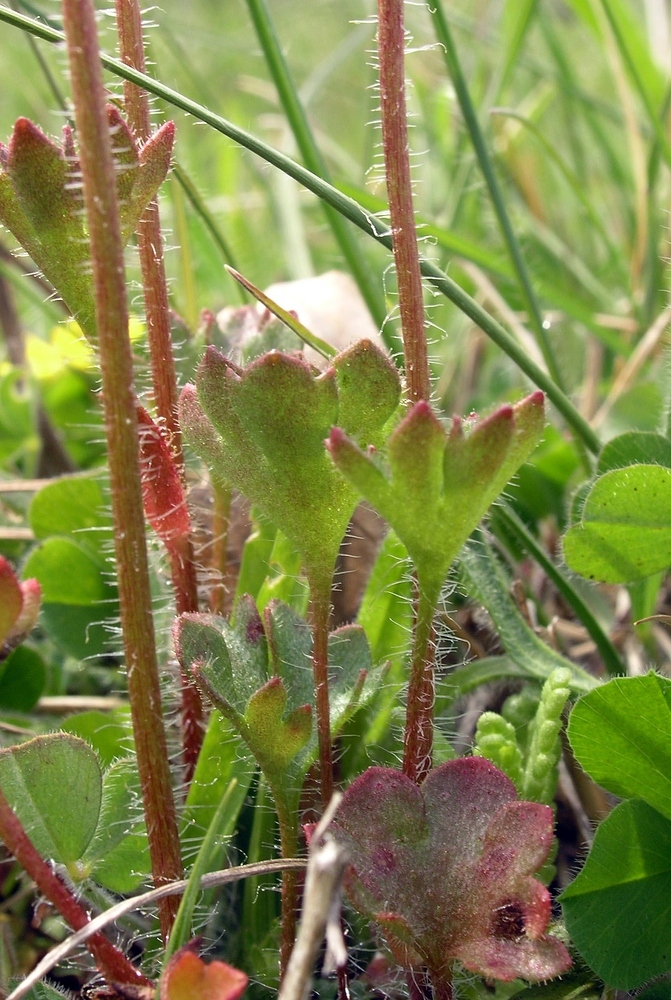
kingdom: Plantae
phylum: Tracheophyta
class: Magnoliopsida
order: Saxifragales
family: Saxifragaceae
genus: Saxifraga
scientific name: Saxifraga granulata
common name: Meadow saxifrage
